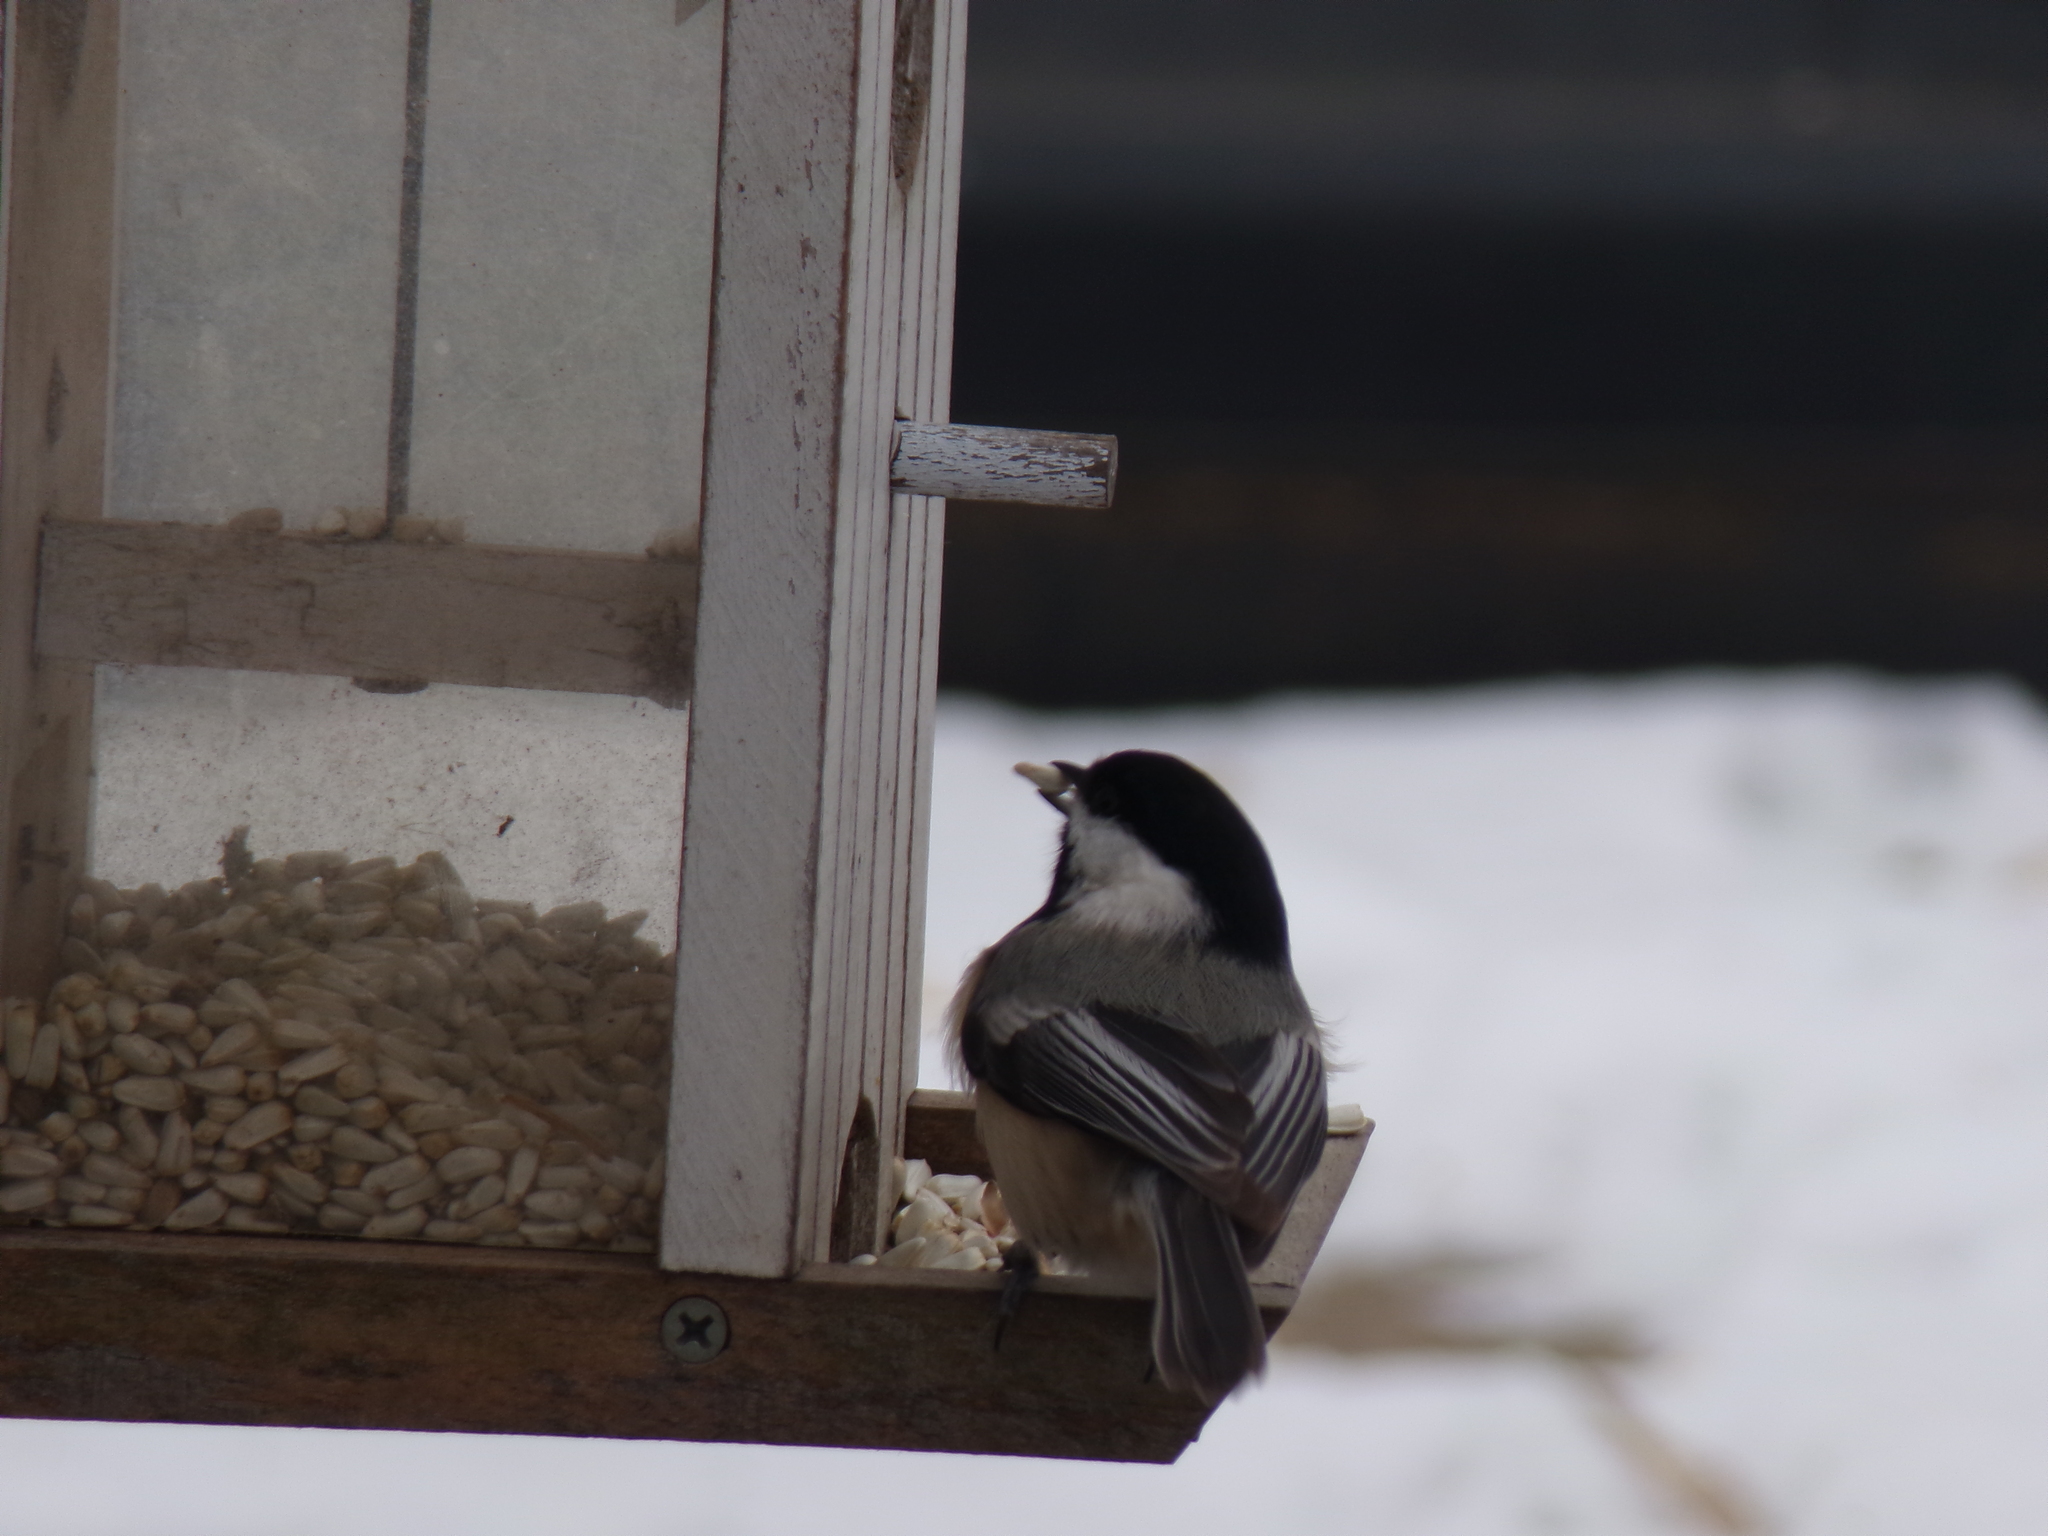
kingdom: Animalia
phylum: Chordata
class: Aves
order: Passeriformes
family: Paridae
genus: Poecile
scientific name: Poecile atricapillus
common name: Black-capped chickadee
